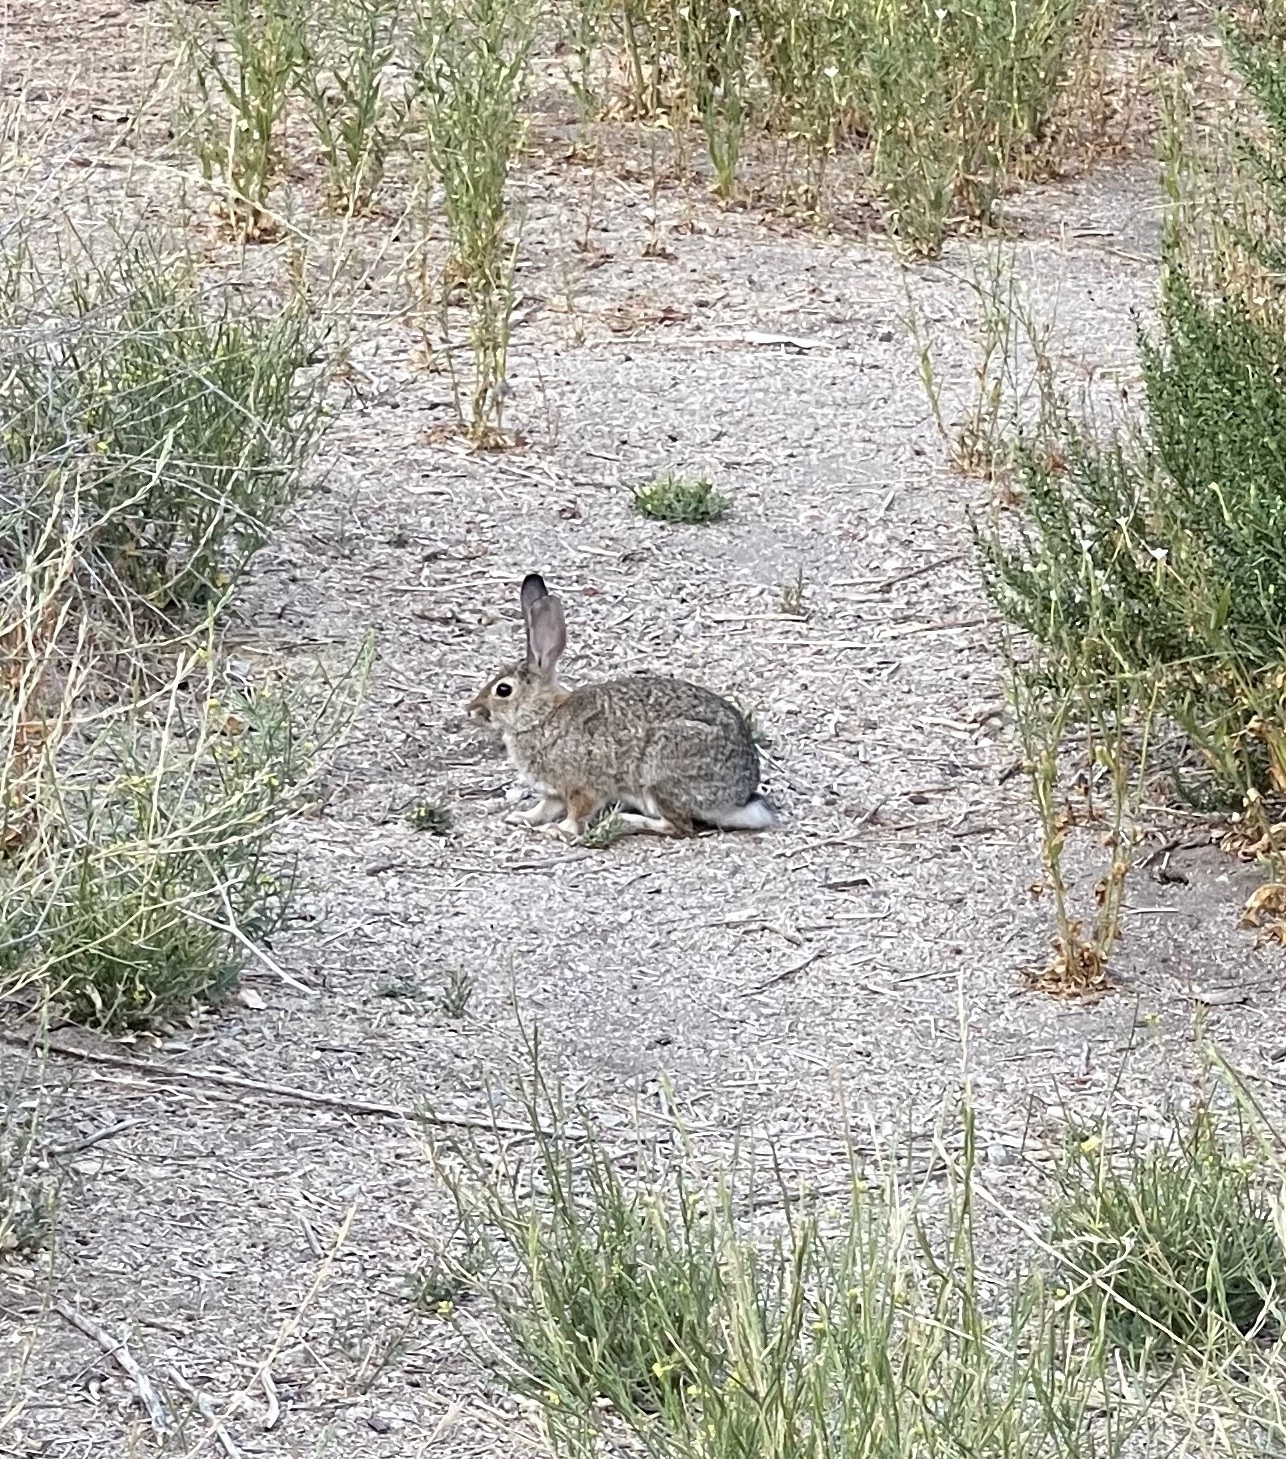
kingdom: Animalia
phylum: Chordata
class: Mammalia
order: Lagomorpha
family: Leporidae
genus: Sylvilagus
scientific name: Sylvilagus audubonii
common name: Desert cottontail
